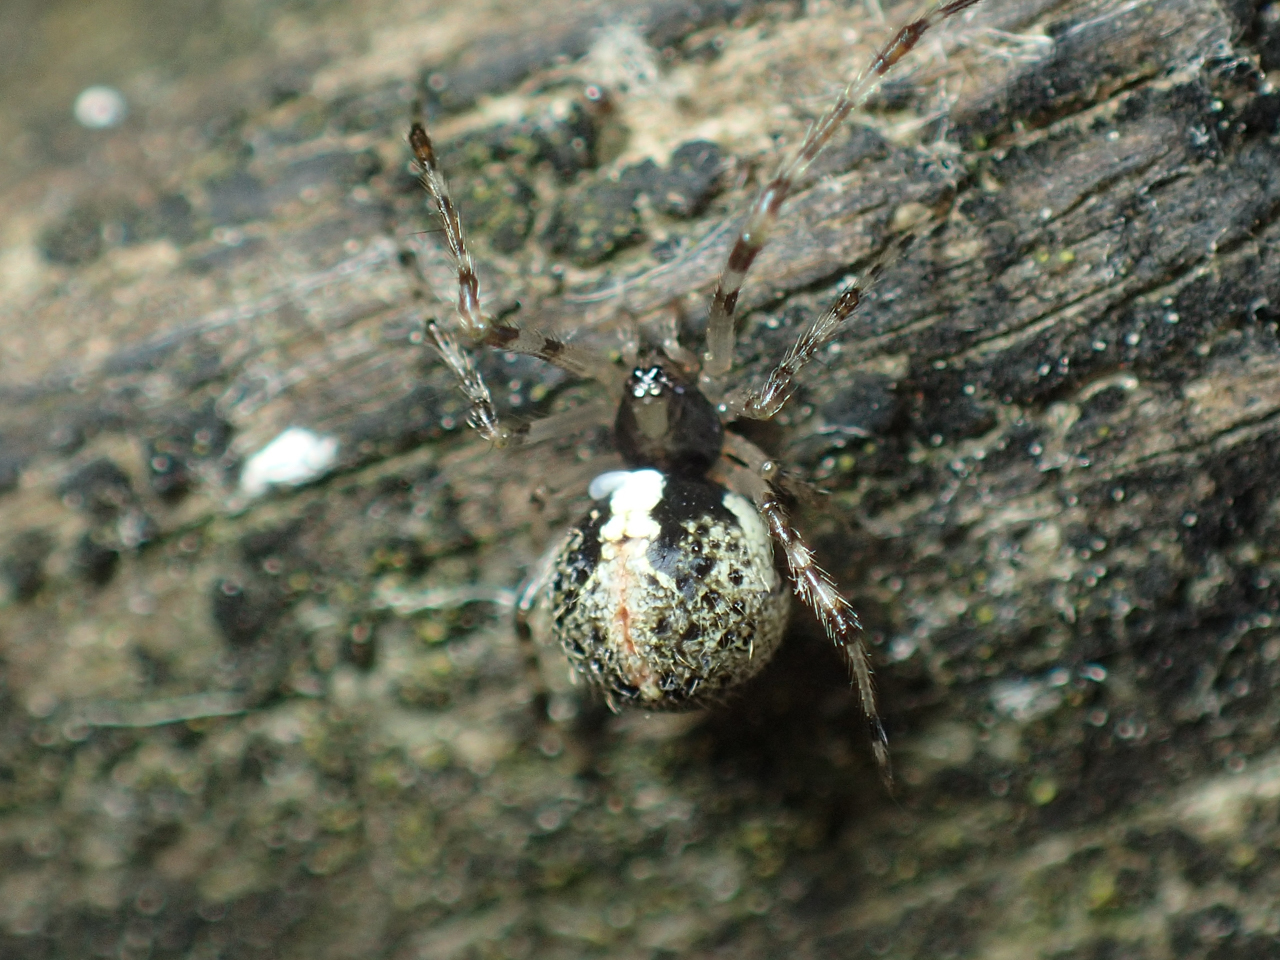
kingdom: Animalia
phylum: Arthropoda
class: Arachnida
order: Araneae
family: Theridiidae
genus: Yunohamella
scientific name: Yunohamella lyrica
